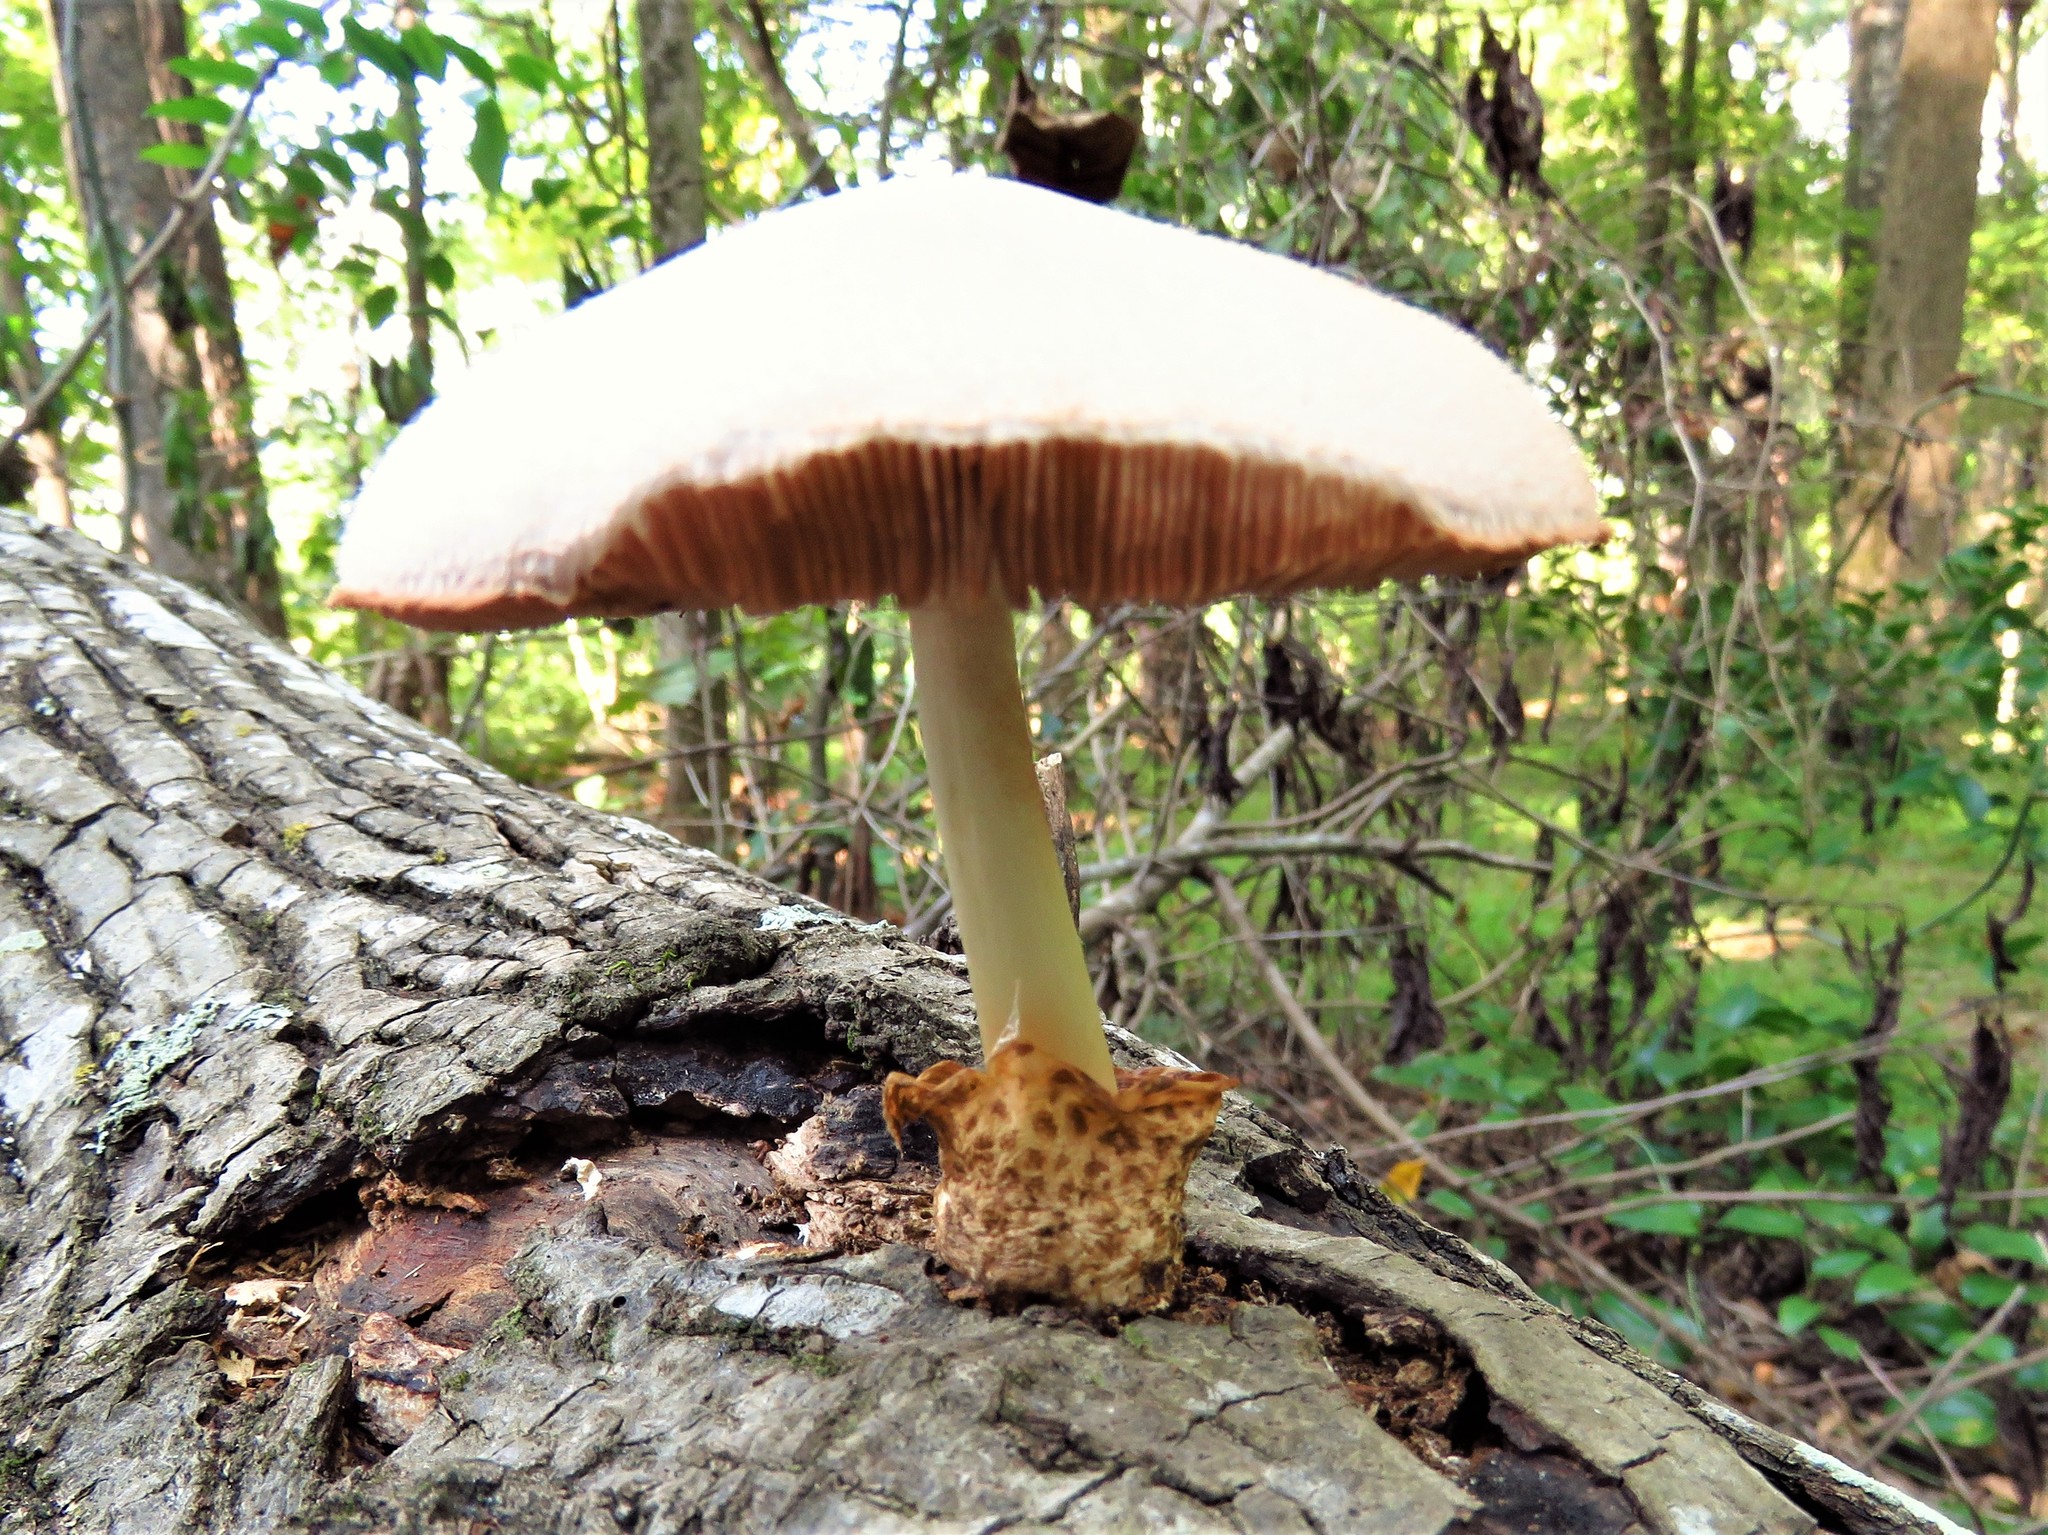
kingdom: Fungi
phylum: Basidiomycota
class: Agaricomycetes
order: Agaricales
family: Pluteaceae
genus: Volvariella
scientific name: Volvariella bombycina
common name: Silky rosegill
